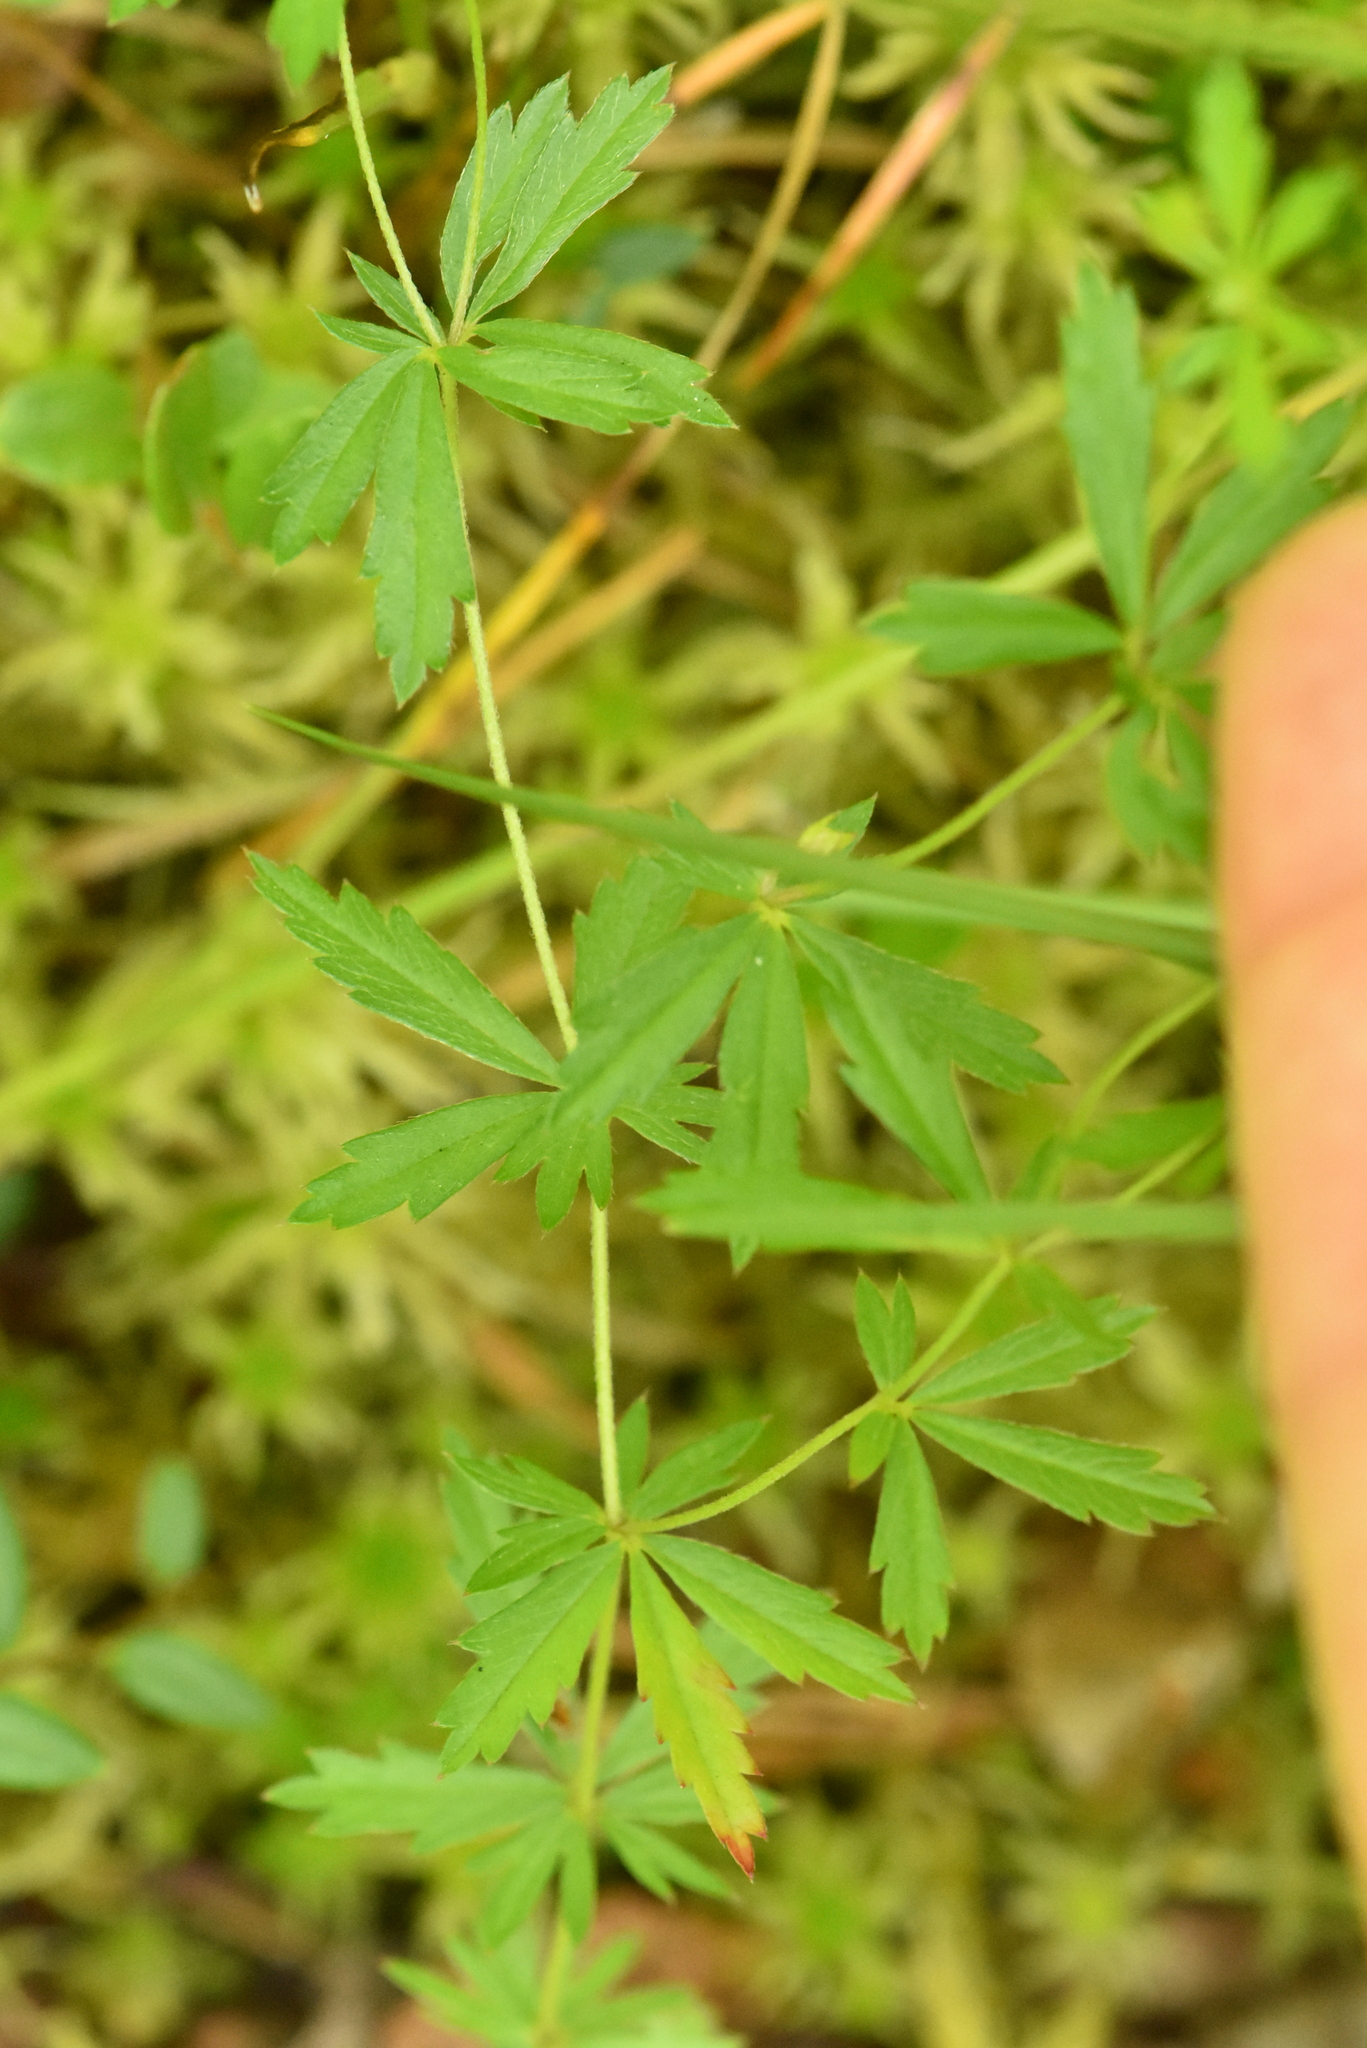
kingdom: Plantae
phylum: Tracheophyta
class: Magnoliopsida
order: Rosales
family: Rosaceae
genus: Potentilla
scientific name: Potentilla erecta
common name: Tormentil
